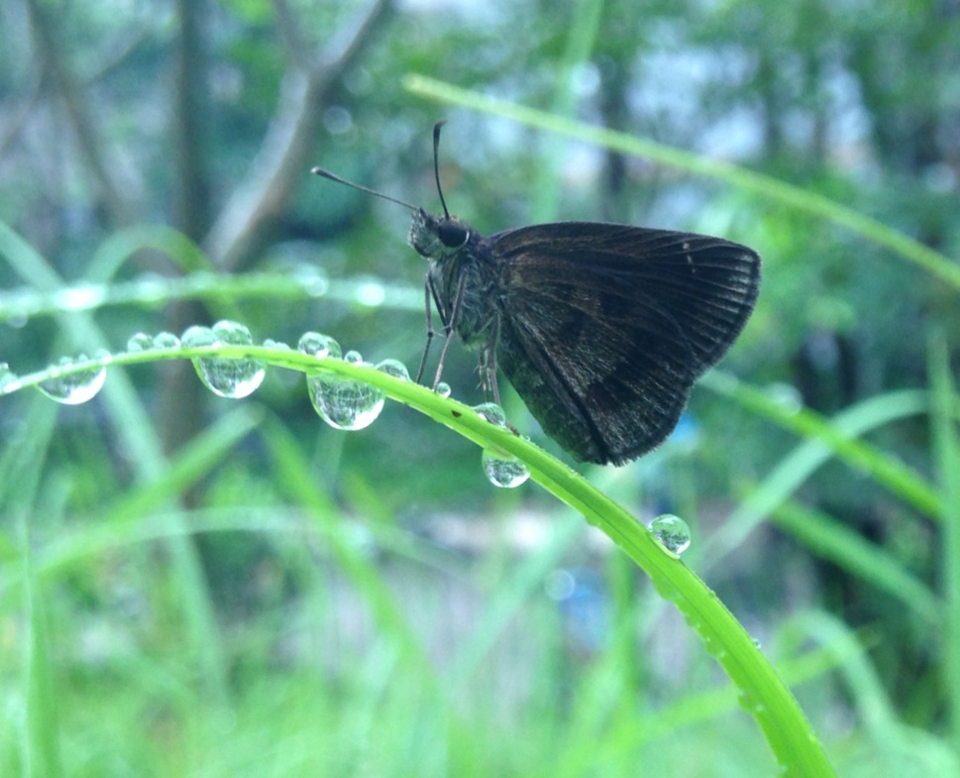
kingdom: Animalia
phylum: Arthropoda
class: Insecta
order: Lepidoptera
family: Hesperiidae
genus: Astictopterus
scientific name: Astictopterus jama
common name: Forest hopper
